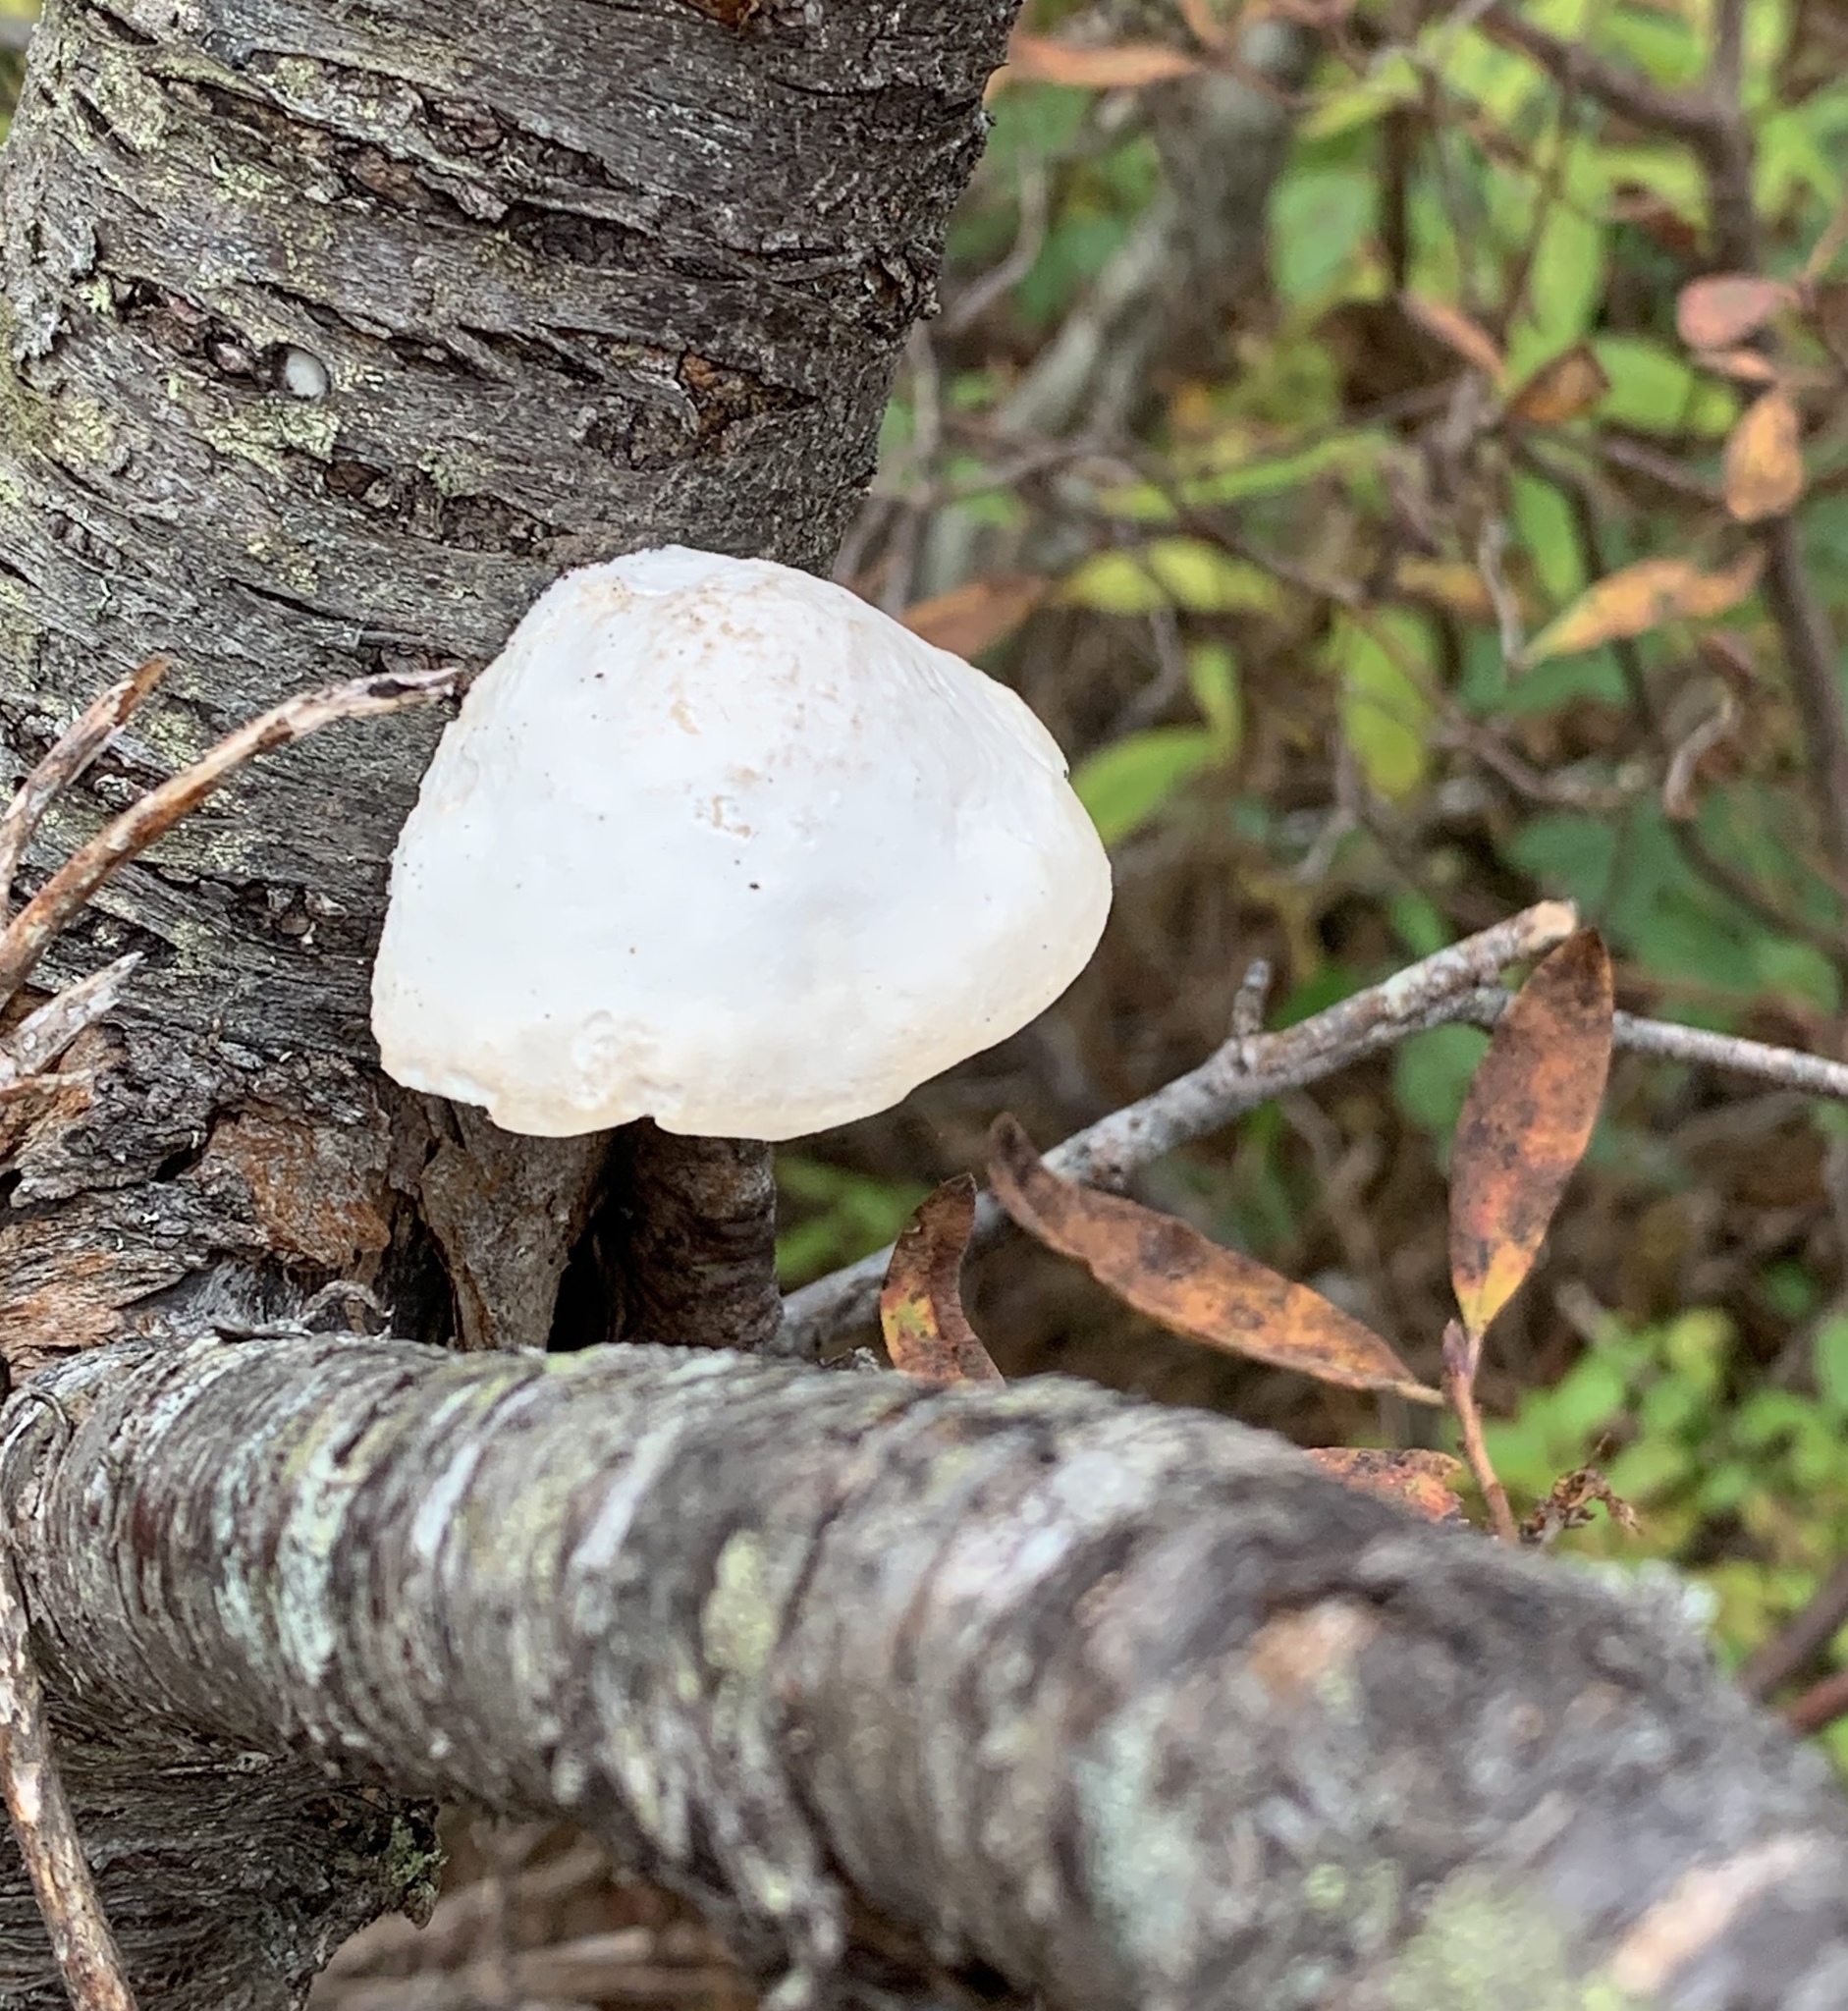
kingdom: Fungi
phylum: Basidiomycota
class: Agaricomycetes
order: Polyporales
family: Fomitopsidaceae
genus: Fomitopsis
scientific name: Fomitopsis betulina
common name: Birch polypore
